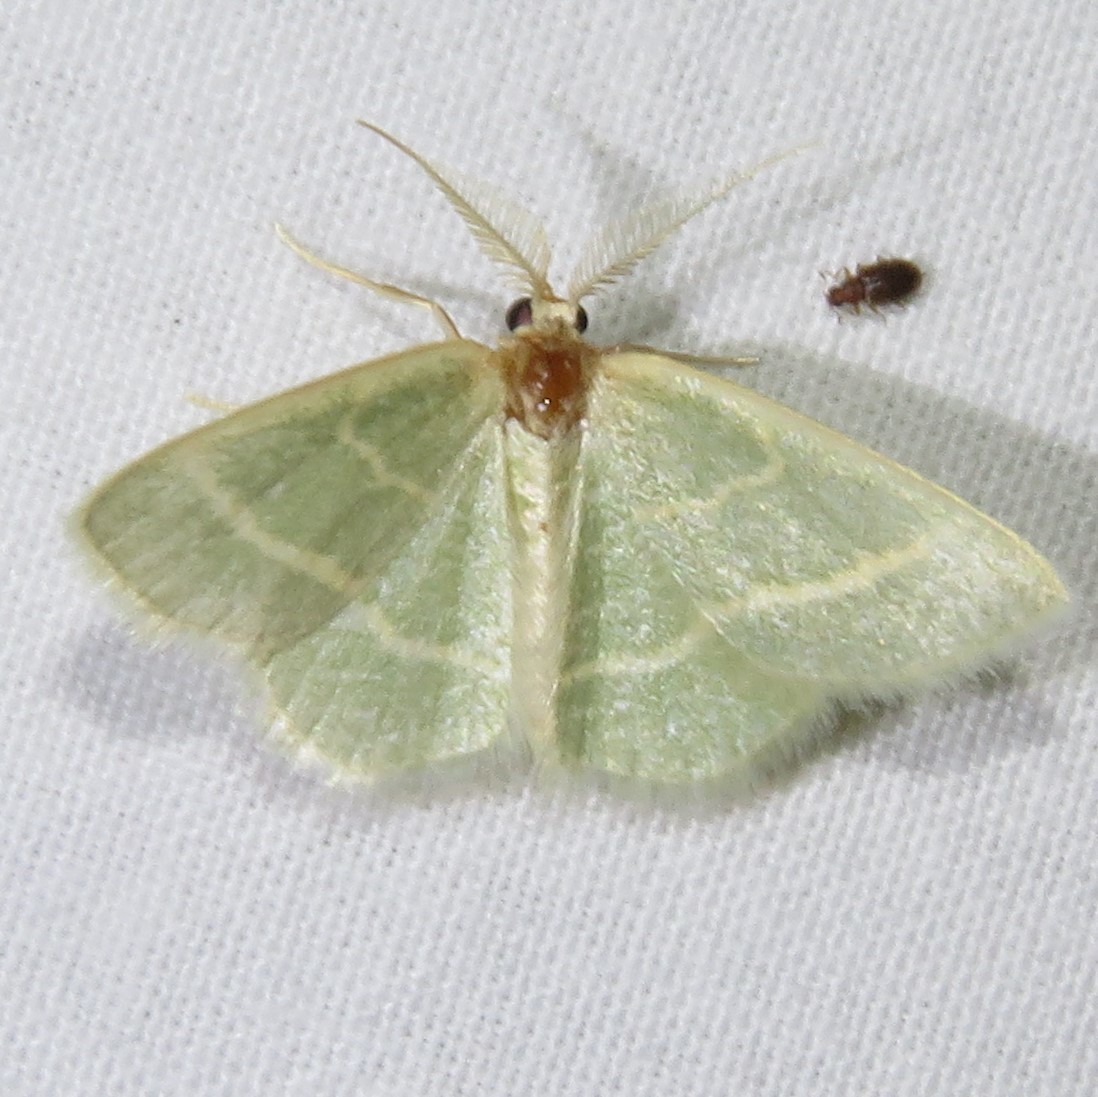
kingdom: Animalia
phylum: Arthropoda
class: Insecta
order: Lepidoptera
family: Geometridae
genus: Chlorochlamys
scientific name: Chlorochlamys chloroleucaria
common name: Blackberry looper
